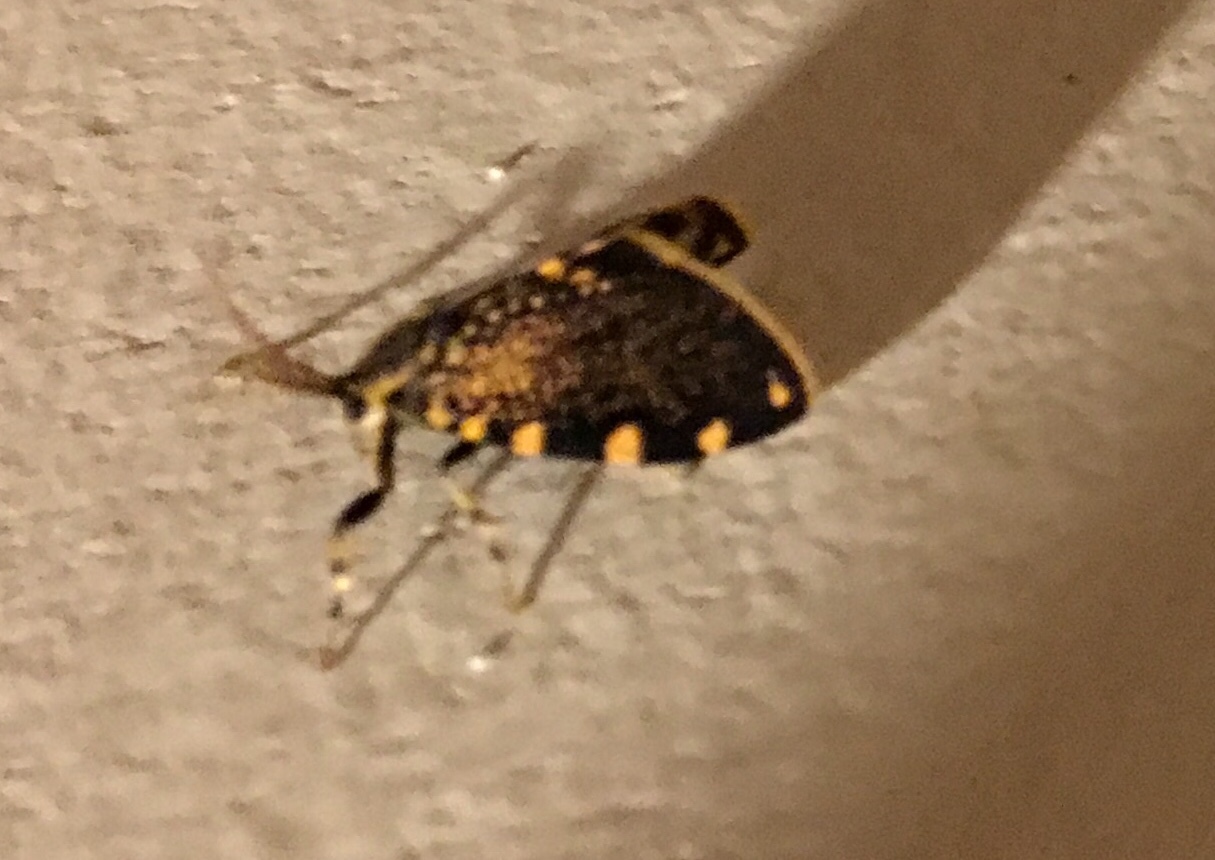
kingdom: Animalia
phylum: Arthropoda
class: Insecta
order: Lepidoptera
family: Psychidae
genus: Cebysa
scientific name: Cebysa leucotelus
